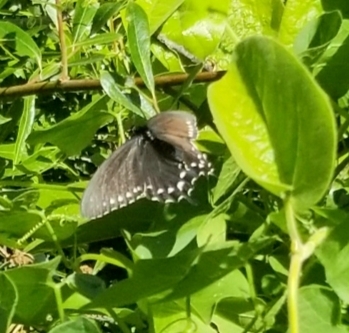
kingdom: Animalia
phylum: Arthropoda
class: Insecta
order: Lepidoptera
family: Papilionidae
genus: Battus
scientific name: Battus philenor
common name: Pipevine swallowtail
